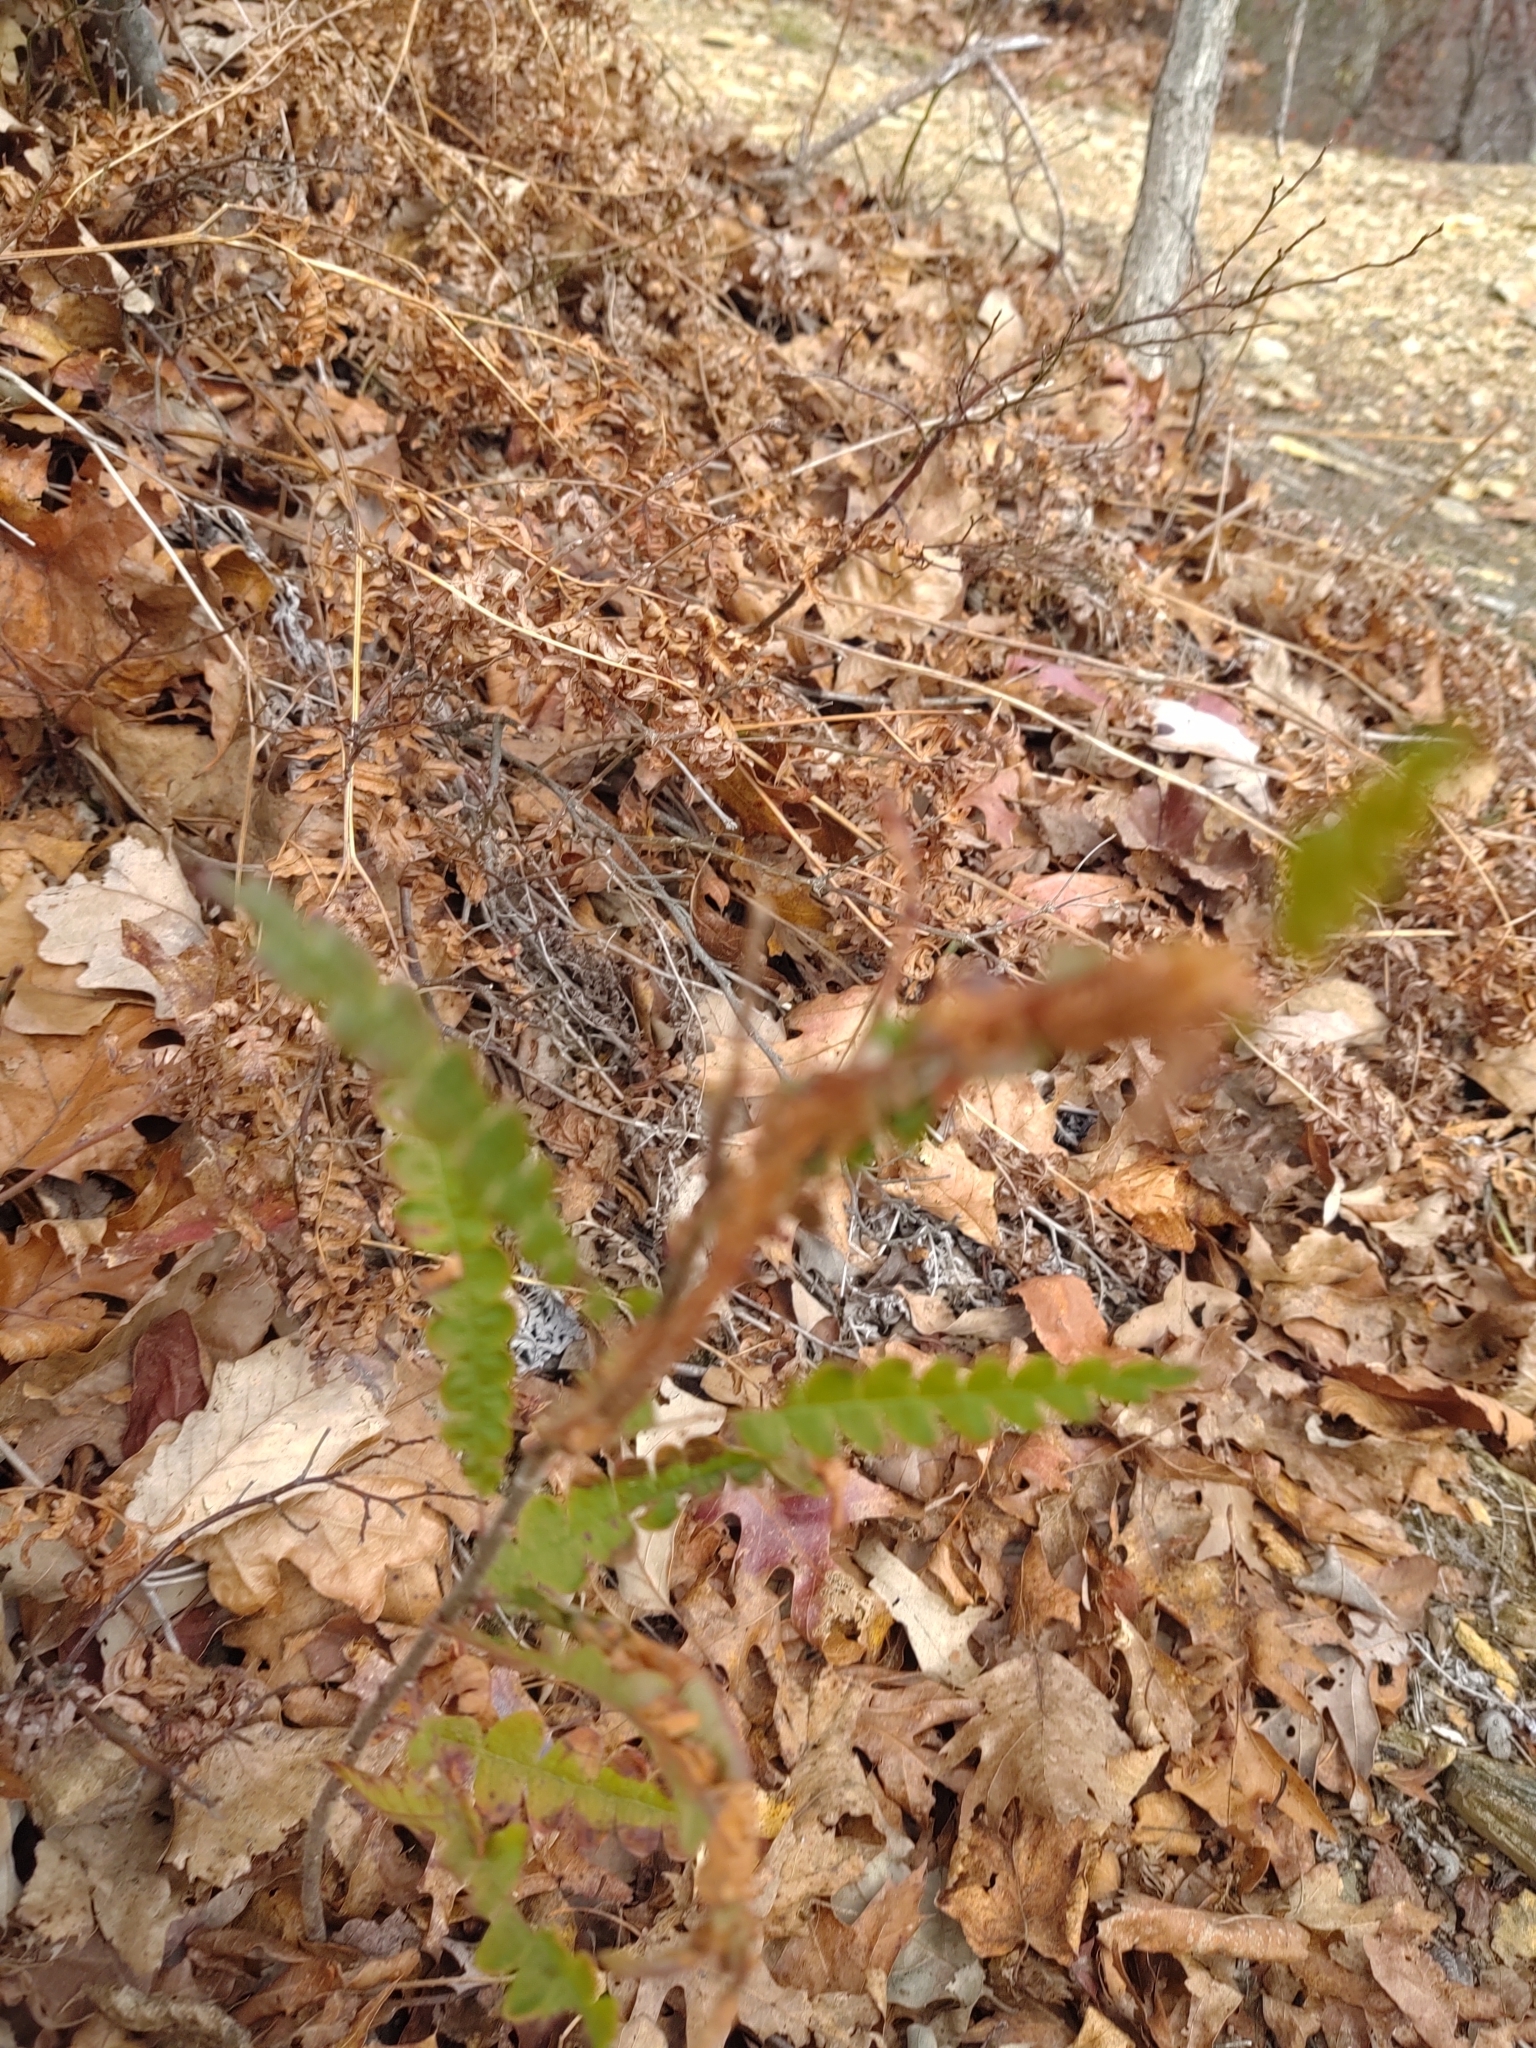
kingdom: Plantae
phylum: Tracheophyta
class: Magnoliopsida
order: Fagales
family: Myricaceae
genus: Comptonia
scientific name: Comptonia peregrina
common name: Sweet-fern
